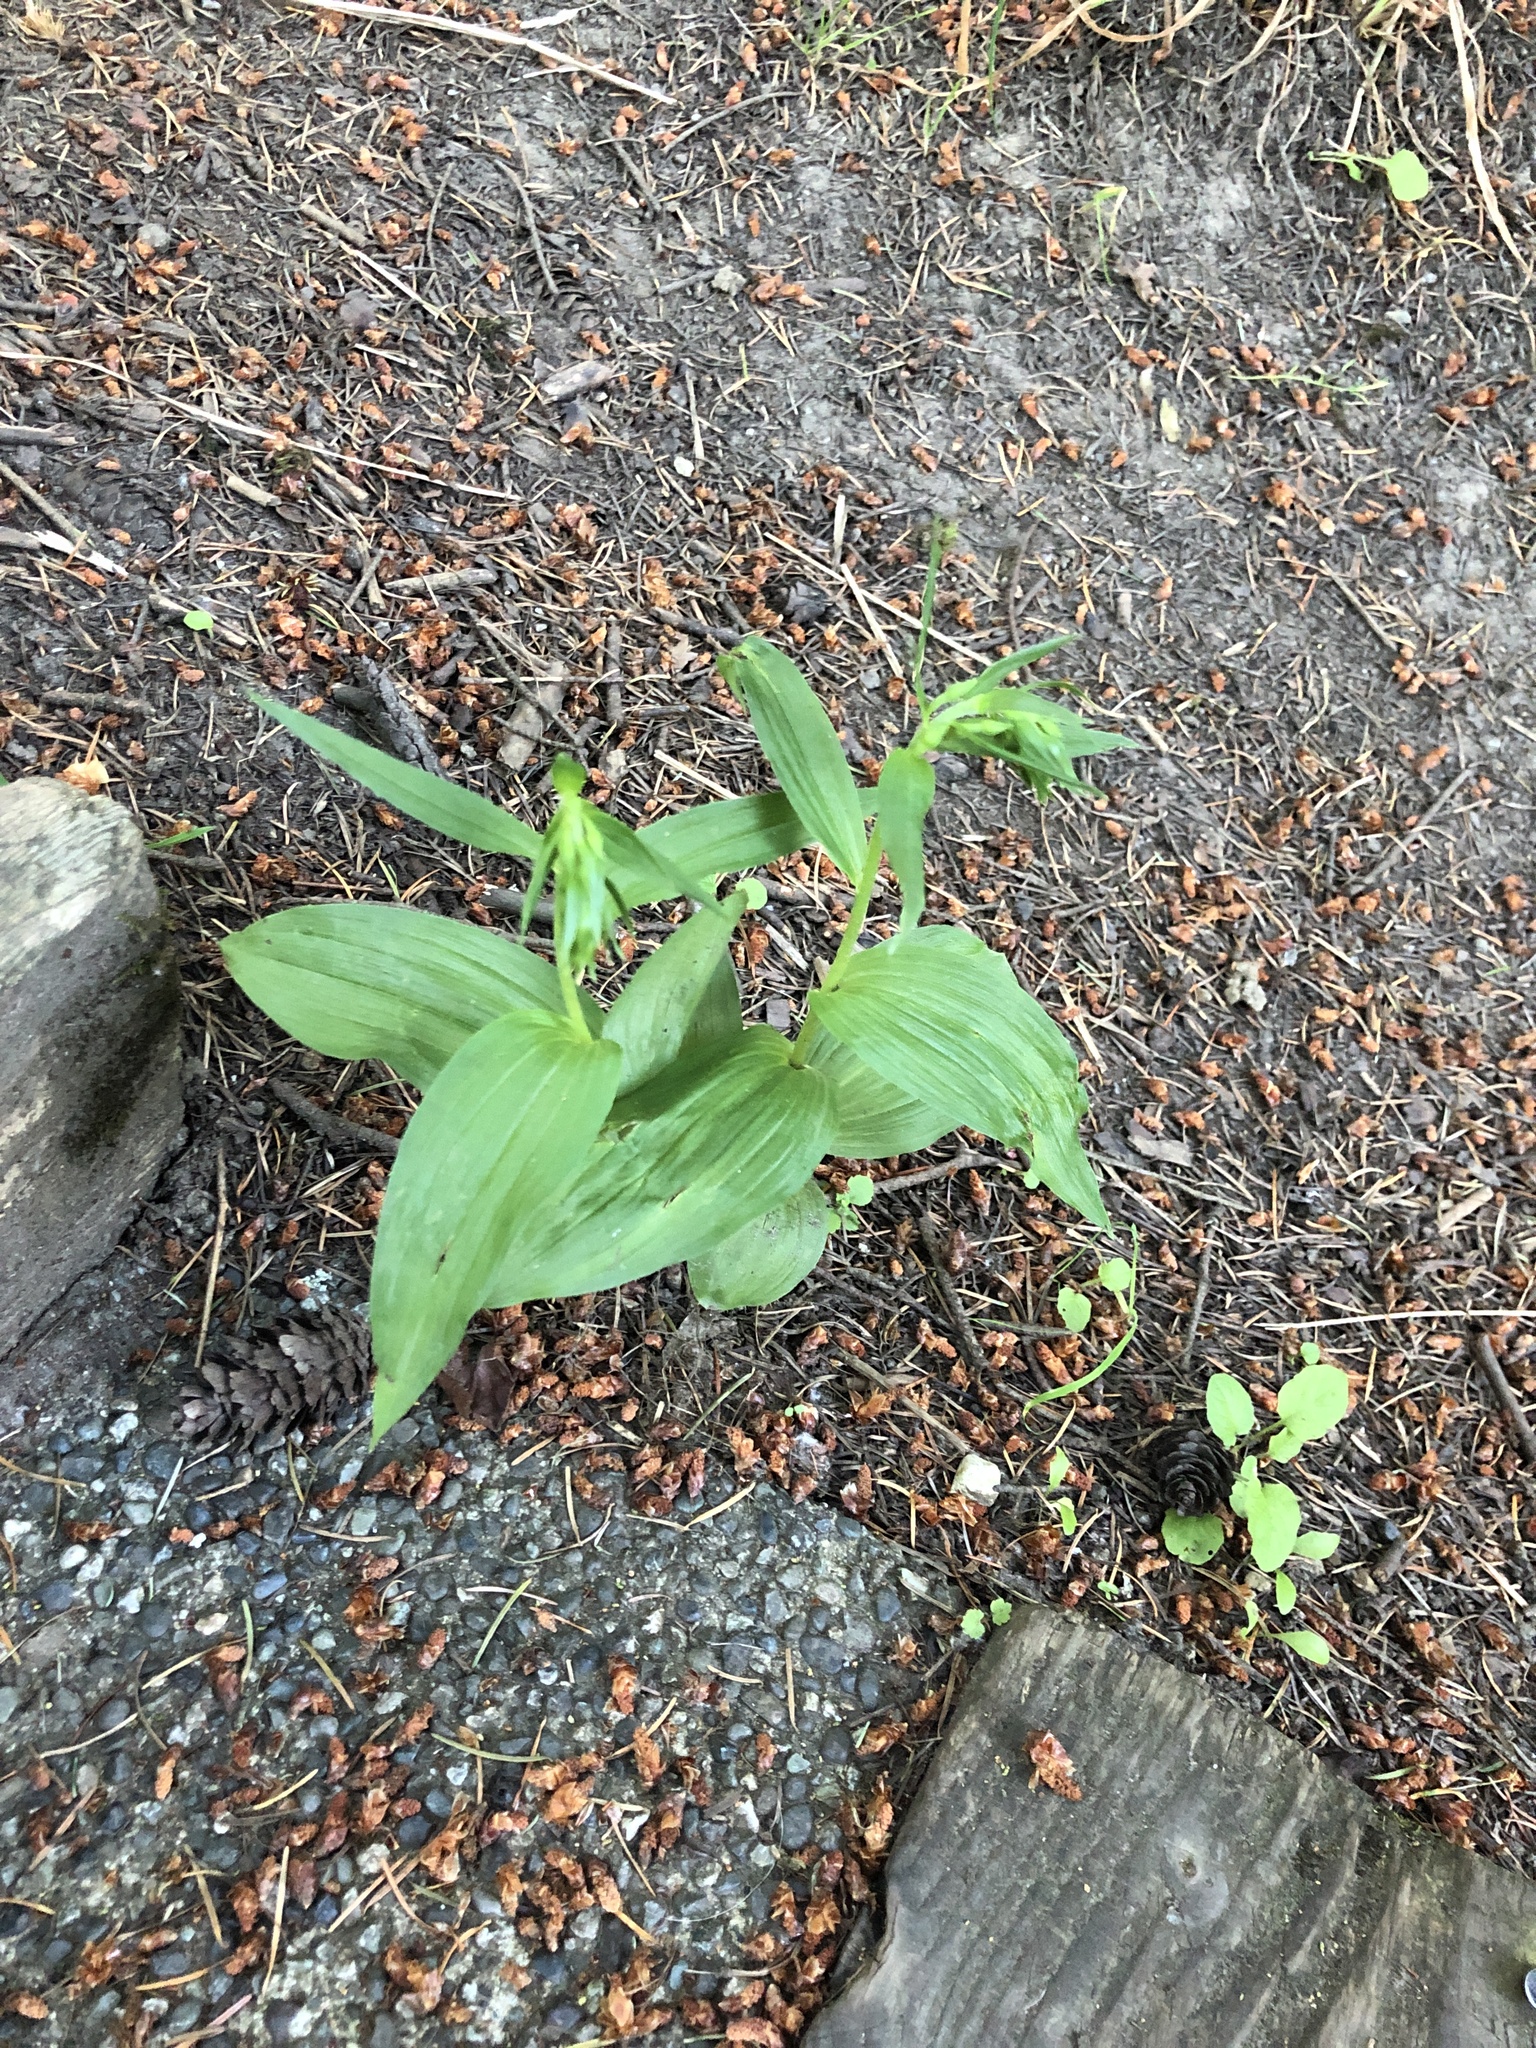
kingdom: Plantae
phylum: Tracheophyta
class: Liliopsida
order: Asparagales
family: Orchidaceae
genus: Epipactis
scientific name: Epipactis helleborine
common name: Broad-leaved helleborine
